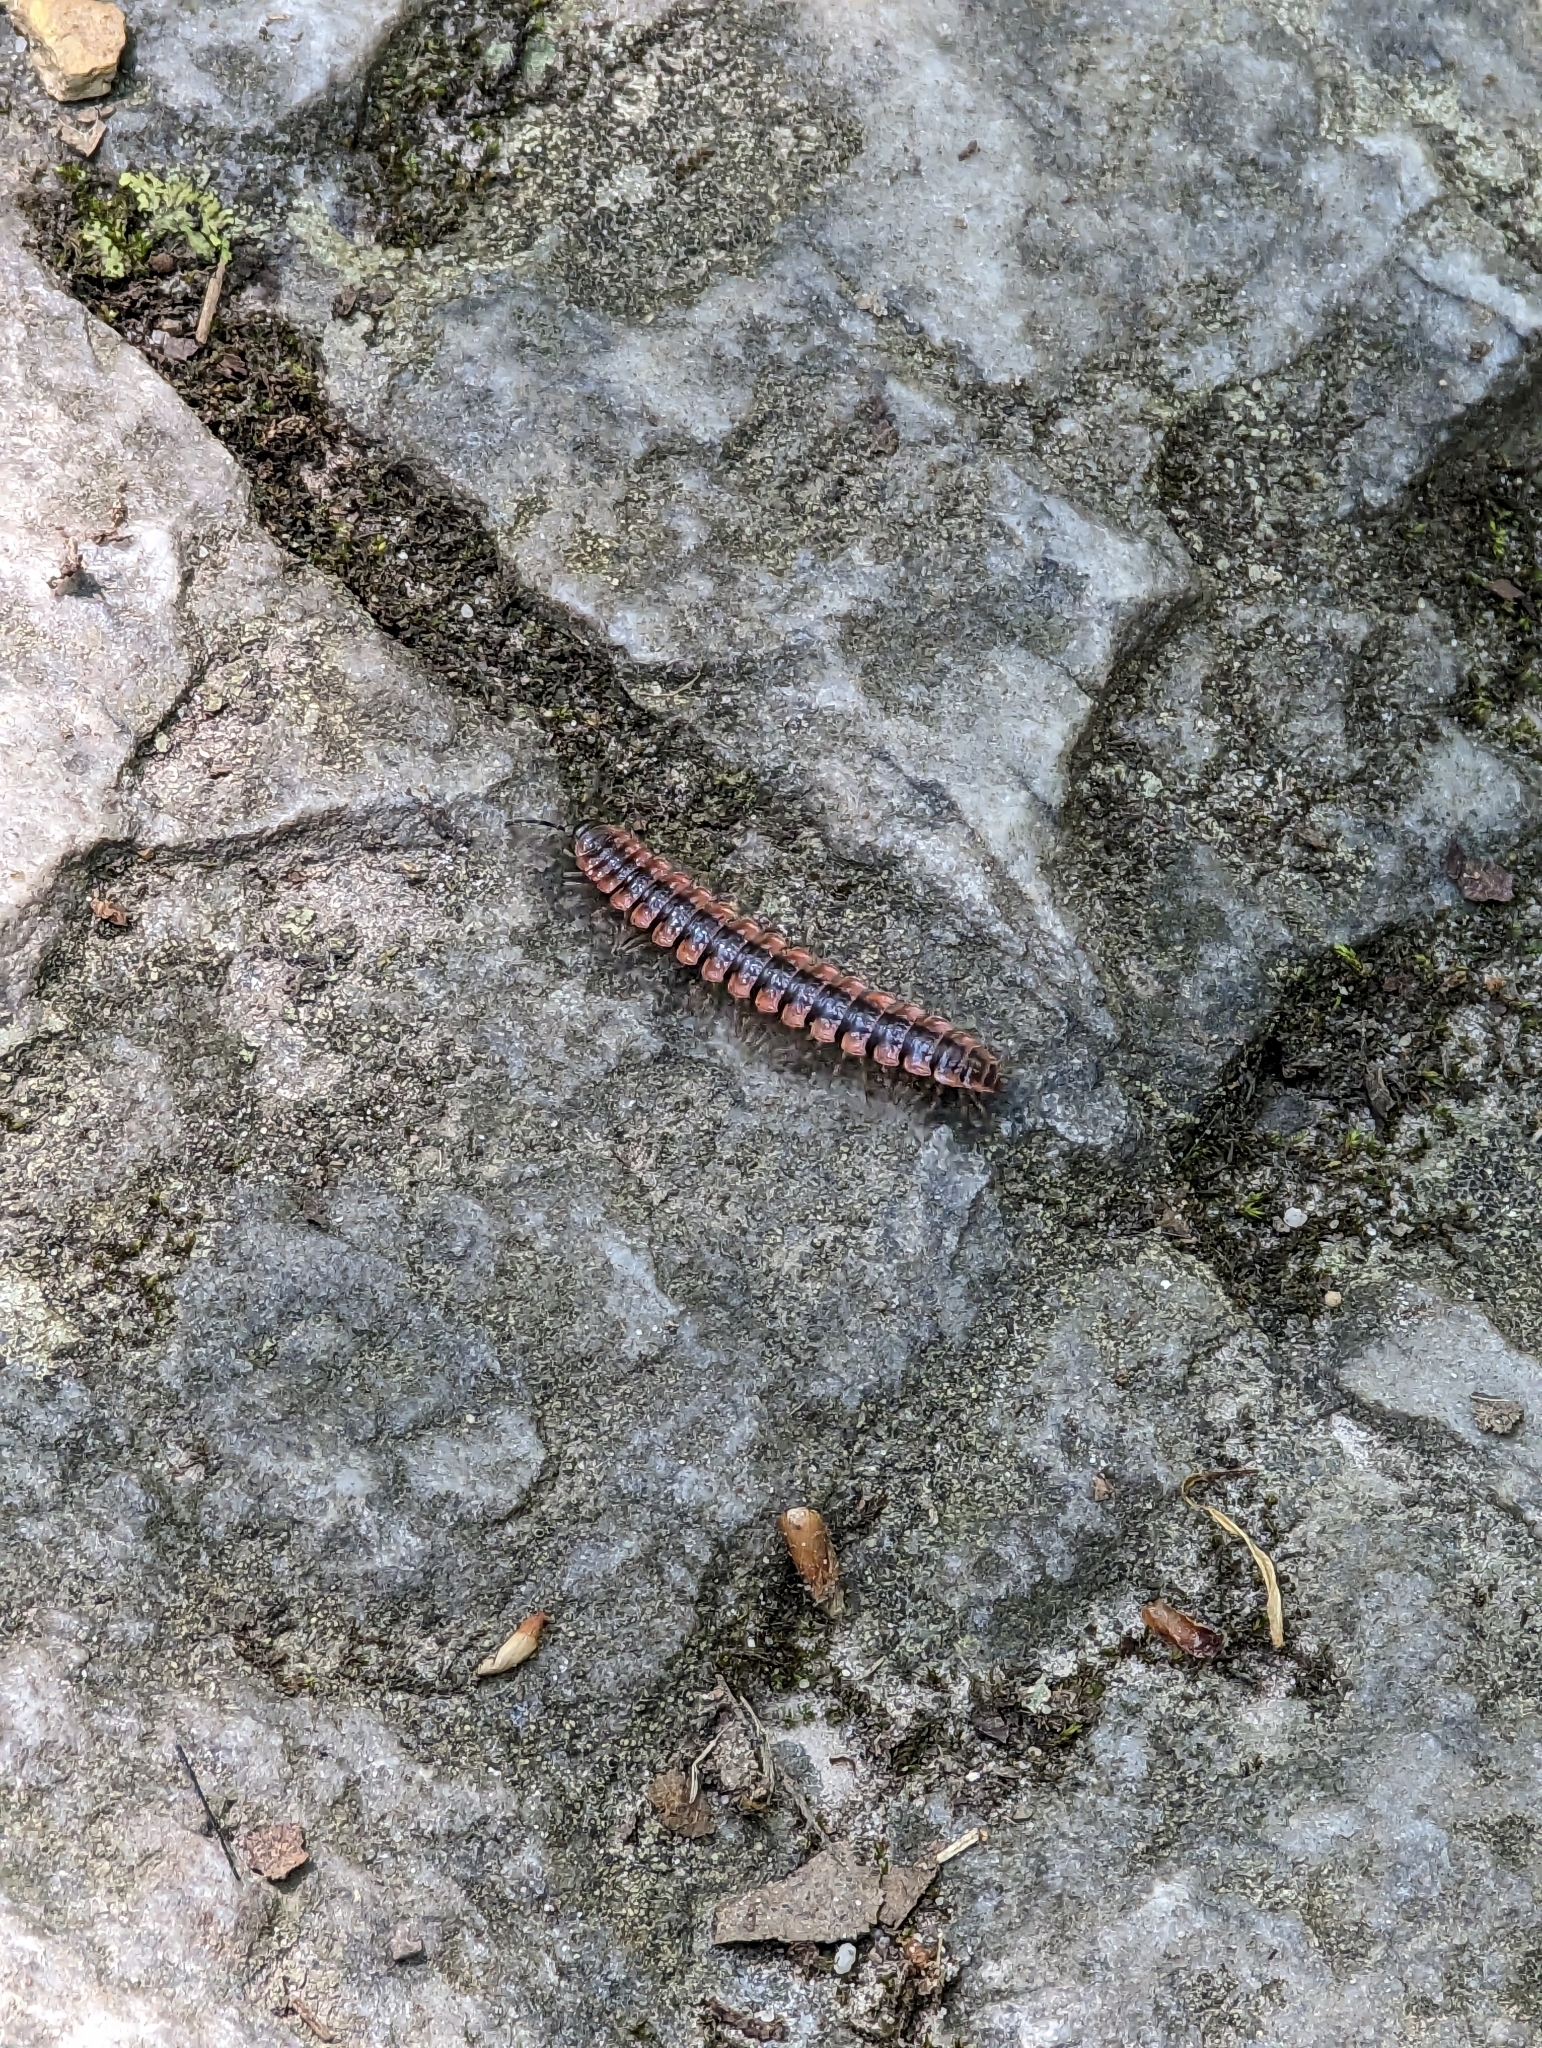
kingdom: Animalia
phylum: Arthropoda
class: Diplopoda
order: Polydesmida
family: Polydesmidae
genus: Pseudopolydesmus
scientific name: Pseudopolydesmus canadensis
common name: Canadian flat-back millipede
